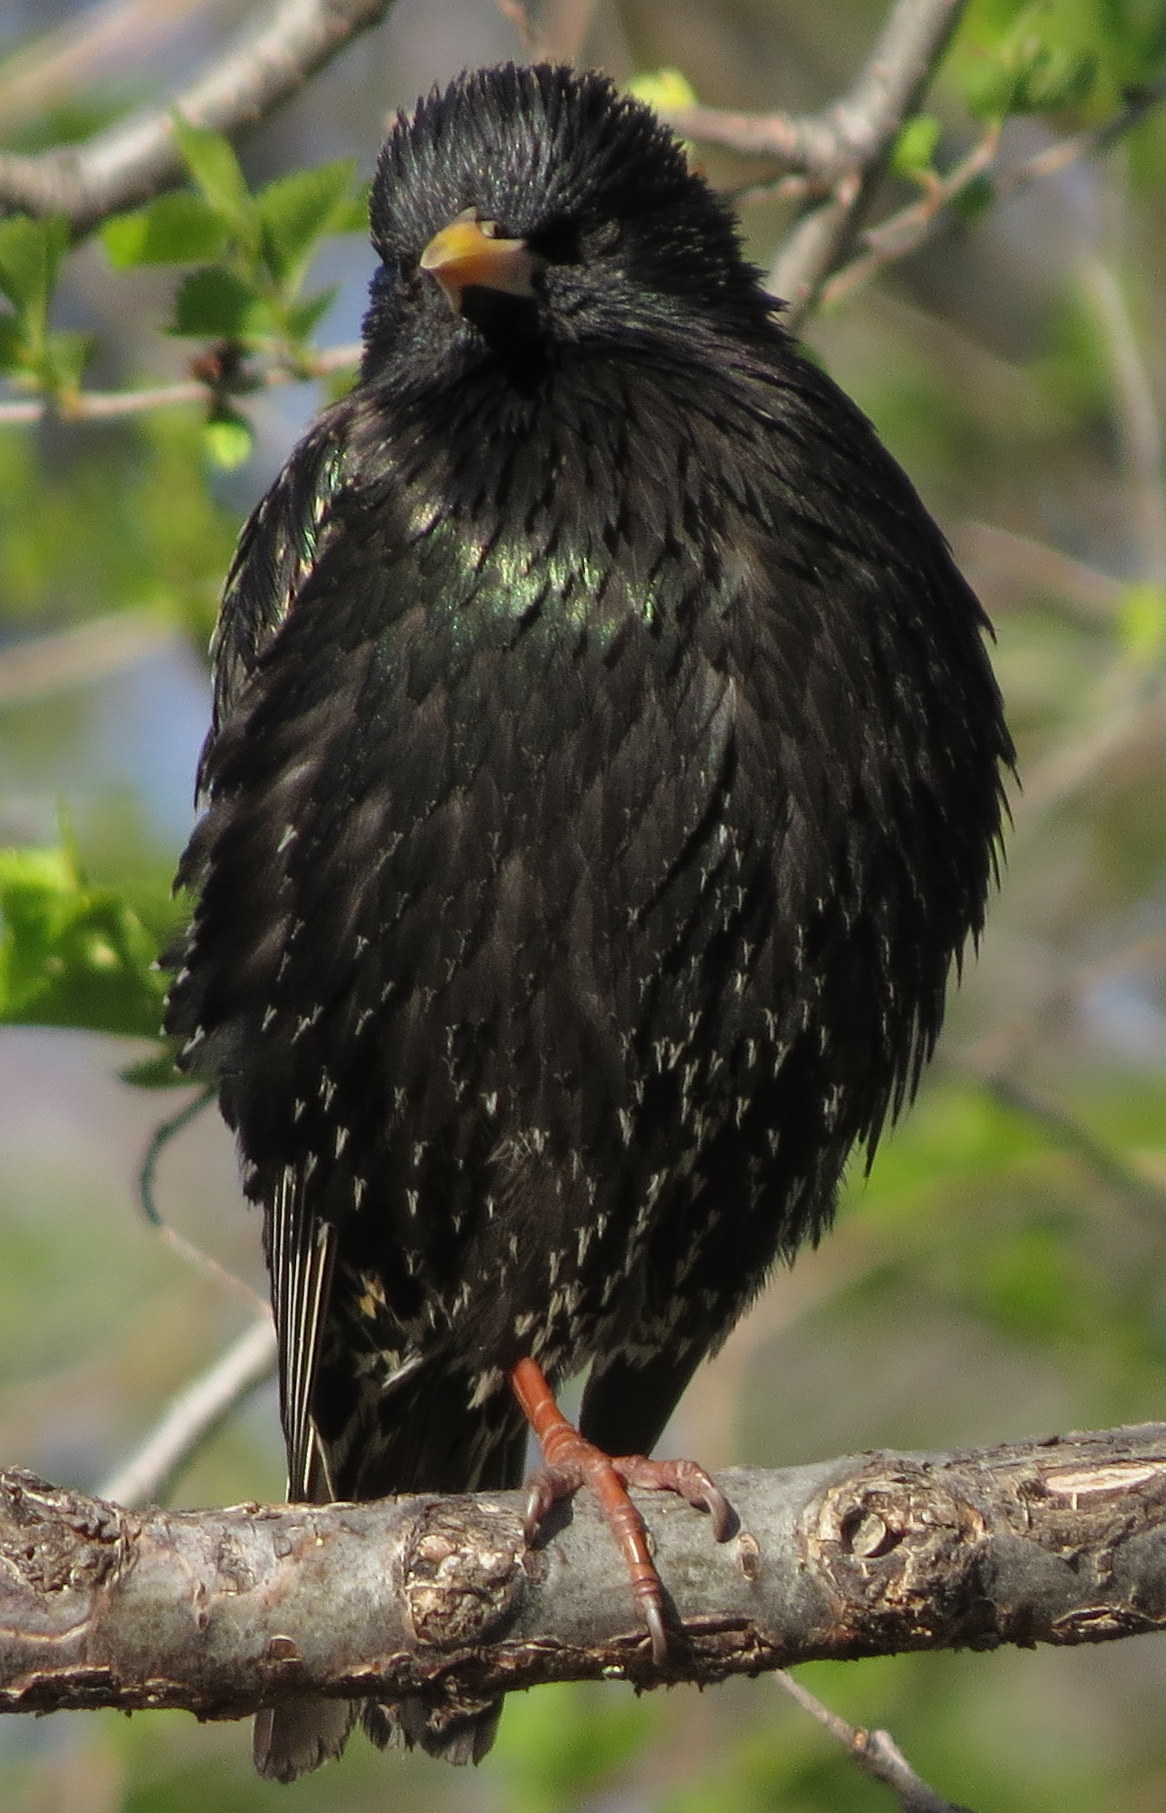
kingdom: Animalia
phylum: Chordata
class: Aves
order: Passeriformes
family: Sturnidae
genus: Sturnus
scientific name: Sturnus vulgaris
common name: Common starling
